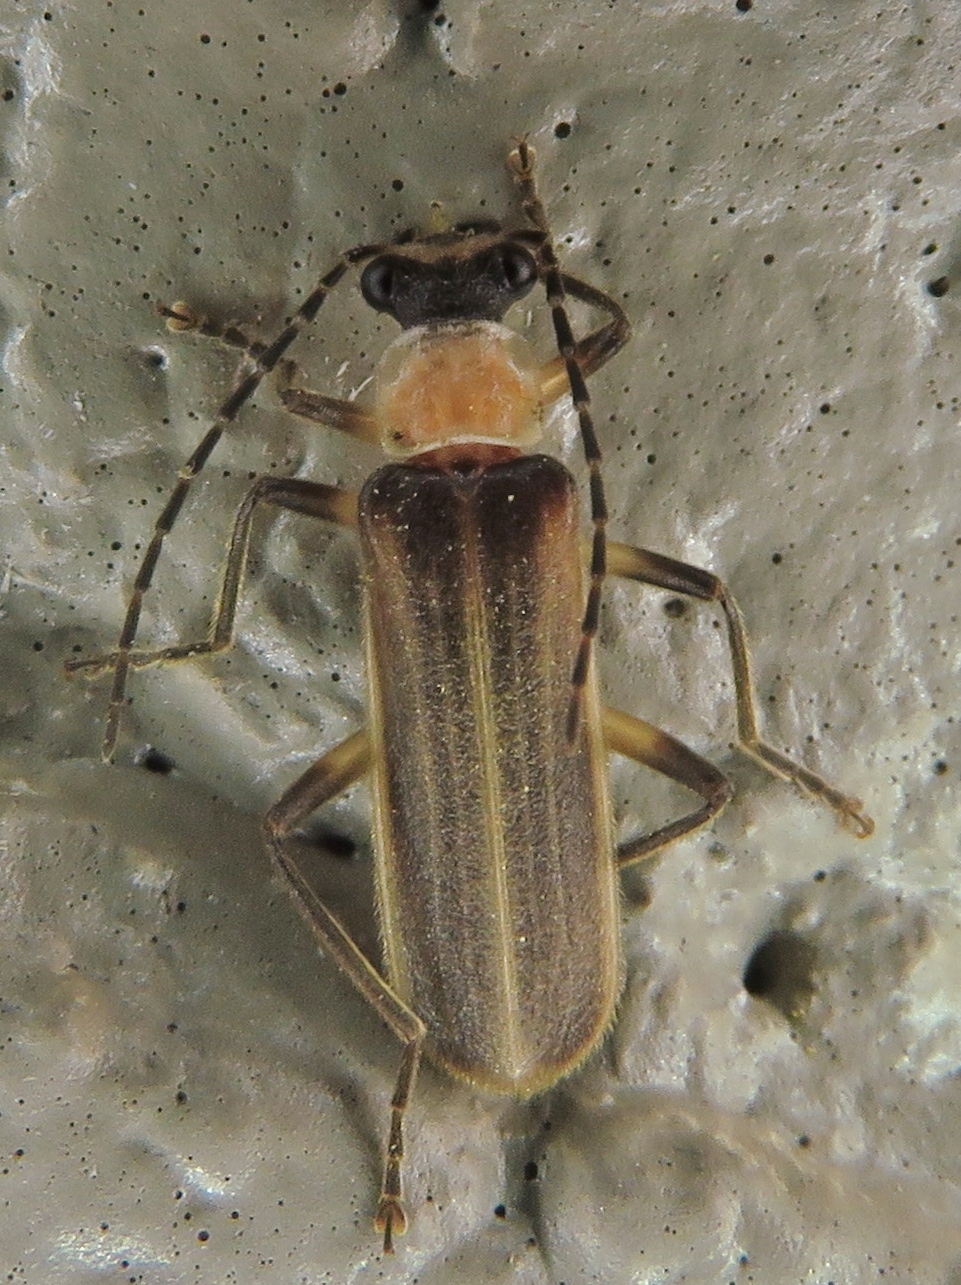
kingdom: Animalia
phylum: Arthropoda
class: Insecta
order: Coleoptera
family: Cantharidae
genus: Podabrus
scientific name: Podabrus quadratus
